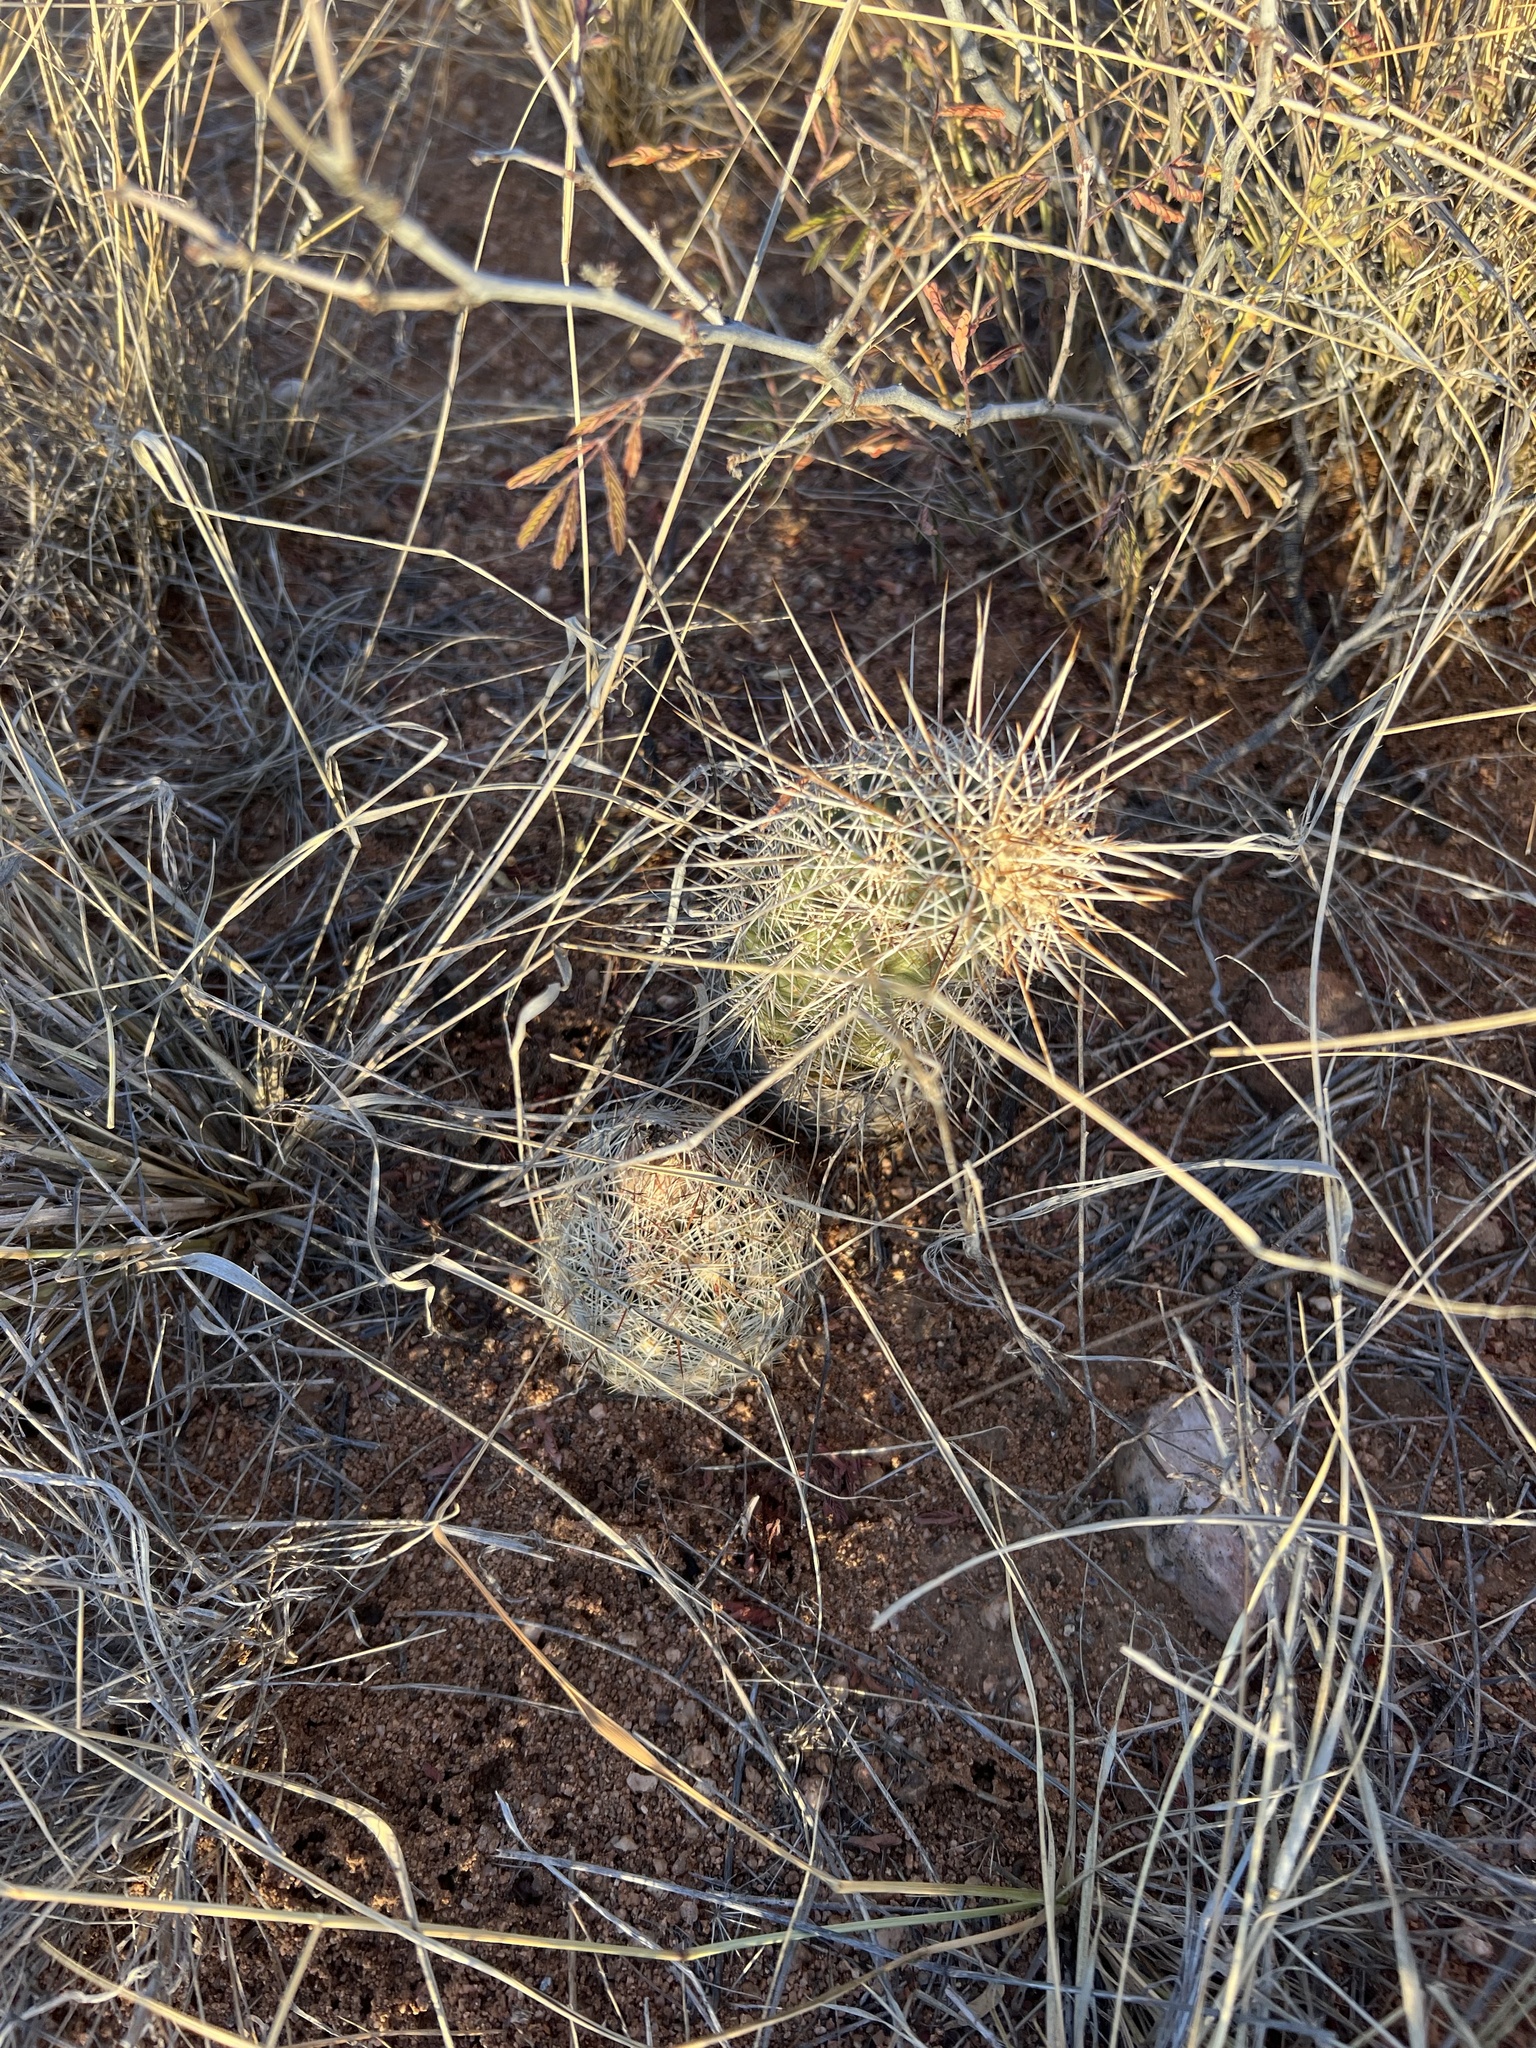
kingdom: Plantae
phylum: Tracheophyta
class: Magnoliopsida
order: Caryophyllales
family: Cactaceae
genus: Echinocereus
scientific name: Echinocereus fasciculatus
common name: Bundle hedgehog
